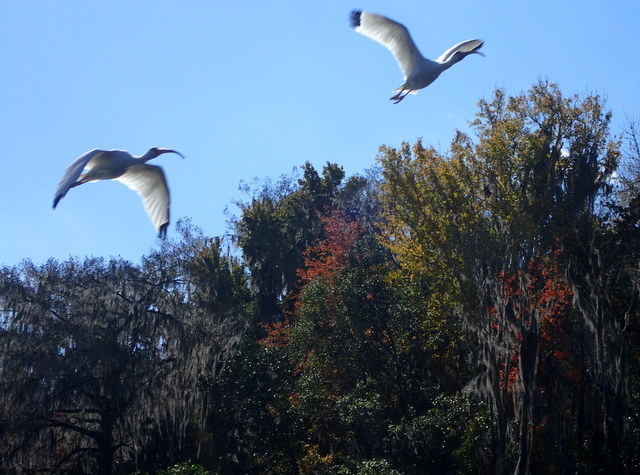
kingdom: Animalia
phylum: Chordata
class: Aves
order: Pelecaniformes
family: Threskiornithidae
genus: Eudocimus
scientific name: Eudocimus albus
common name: White ibis
